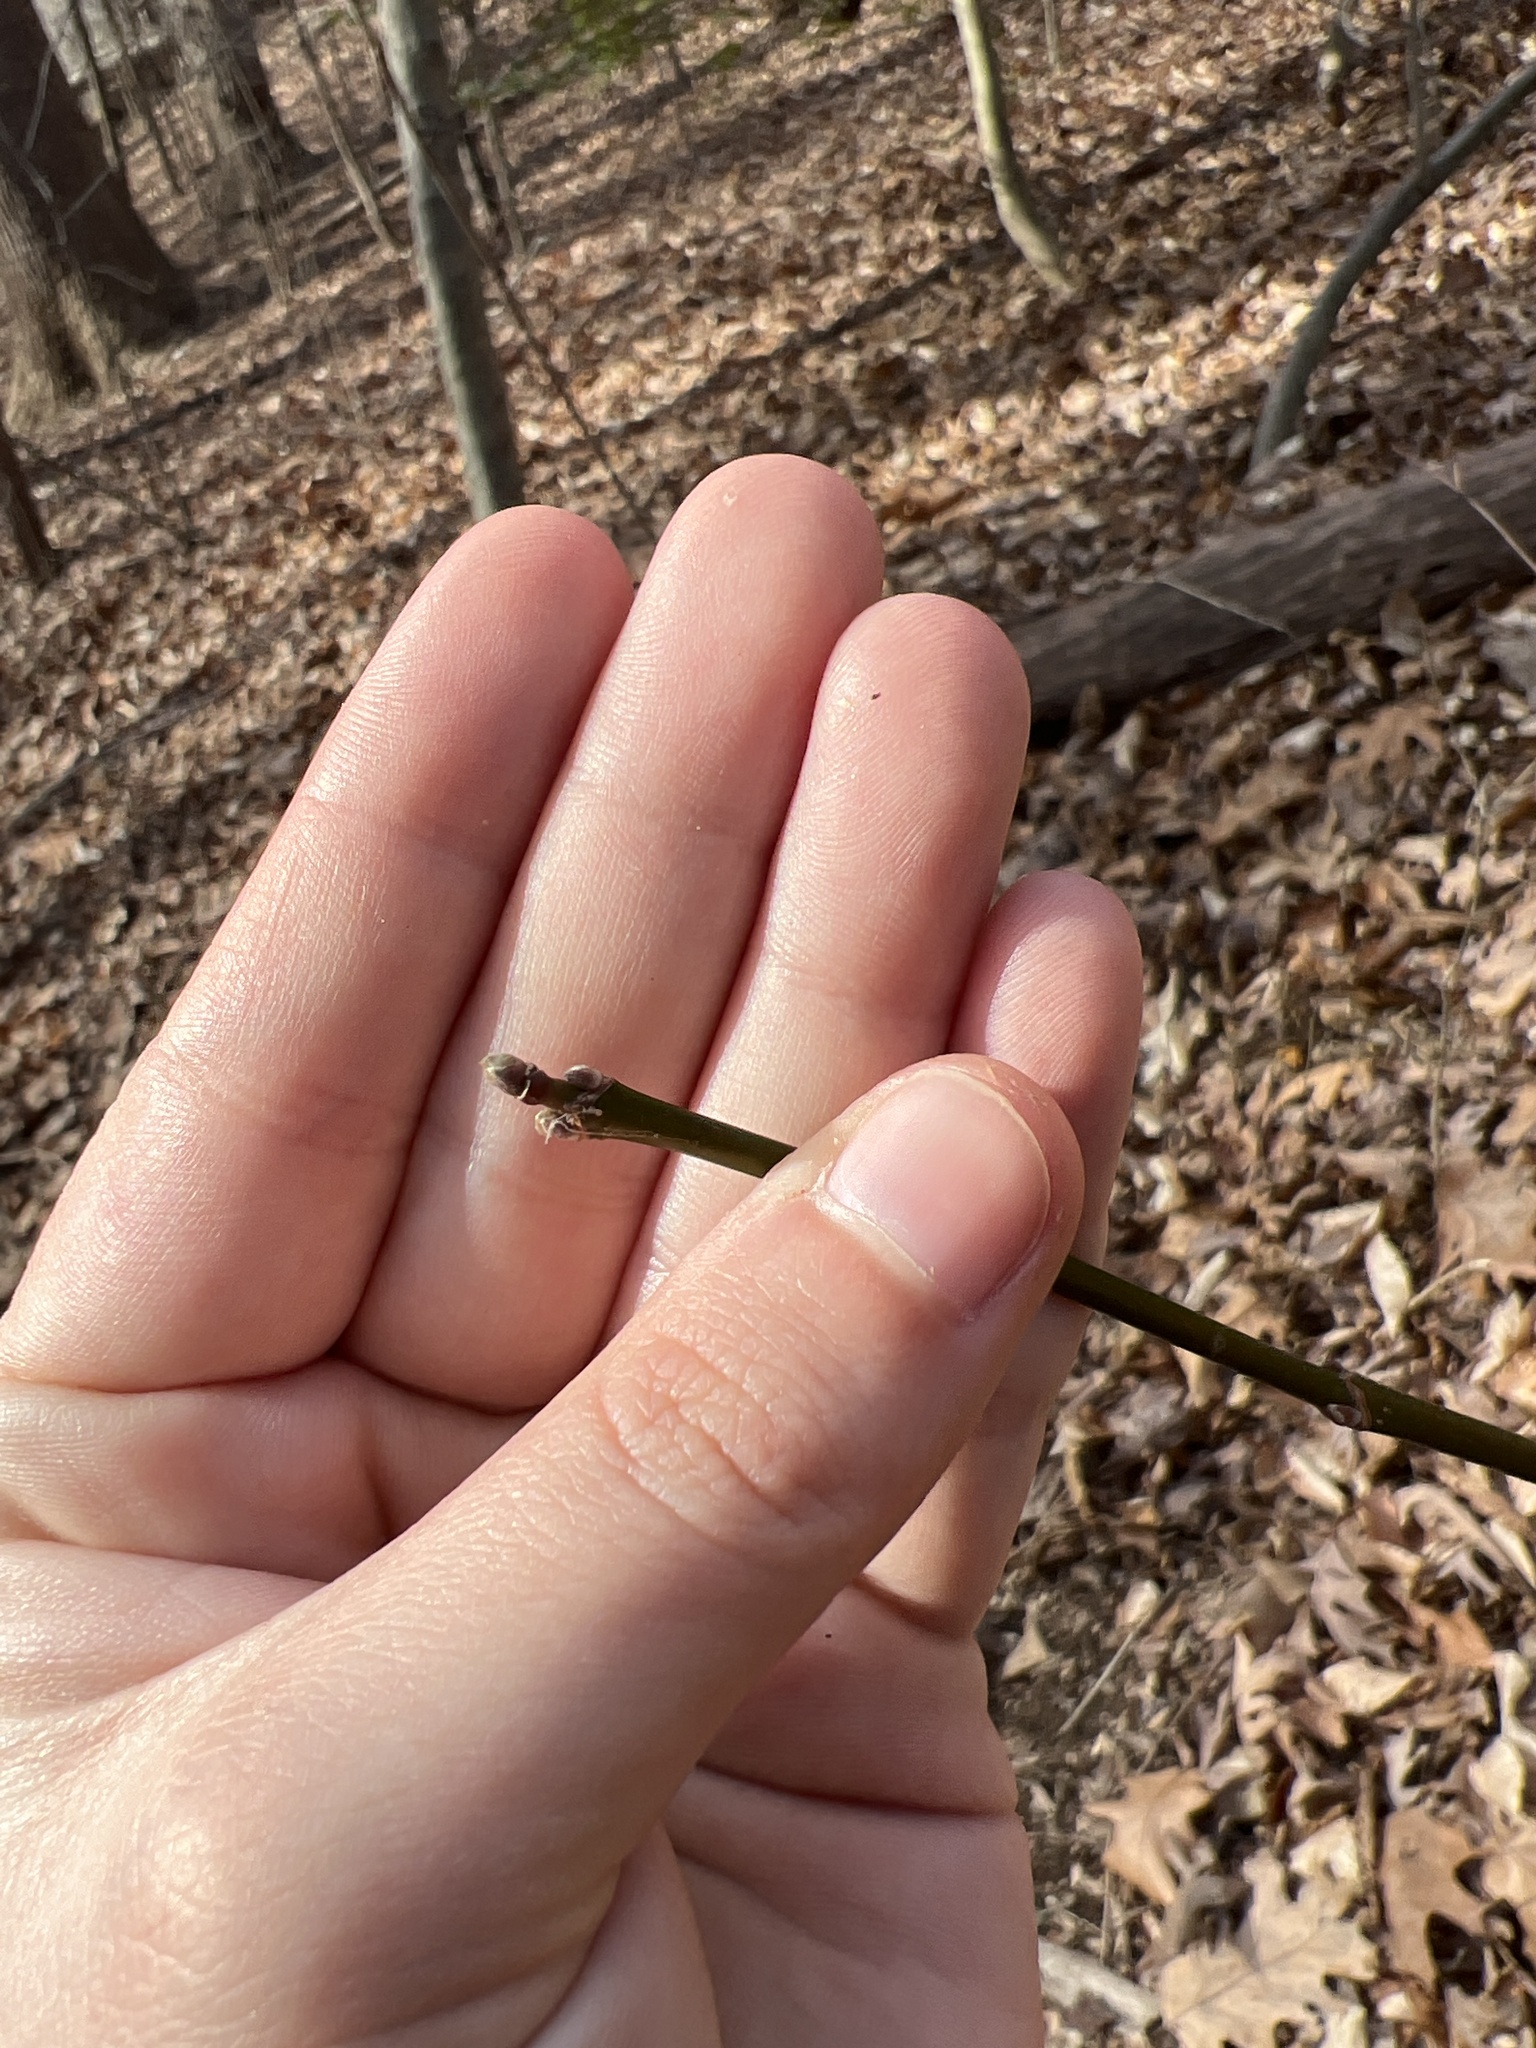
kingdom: Plantae
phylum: Tracheophyta
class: Magnoliopsida
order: Sapindales
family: Sapindaceae
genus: Acer
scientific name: Acer negundo
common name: Ashleaf maple
